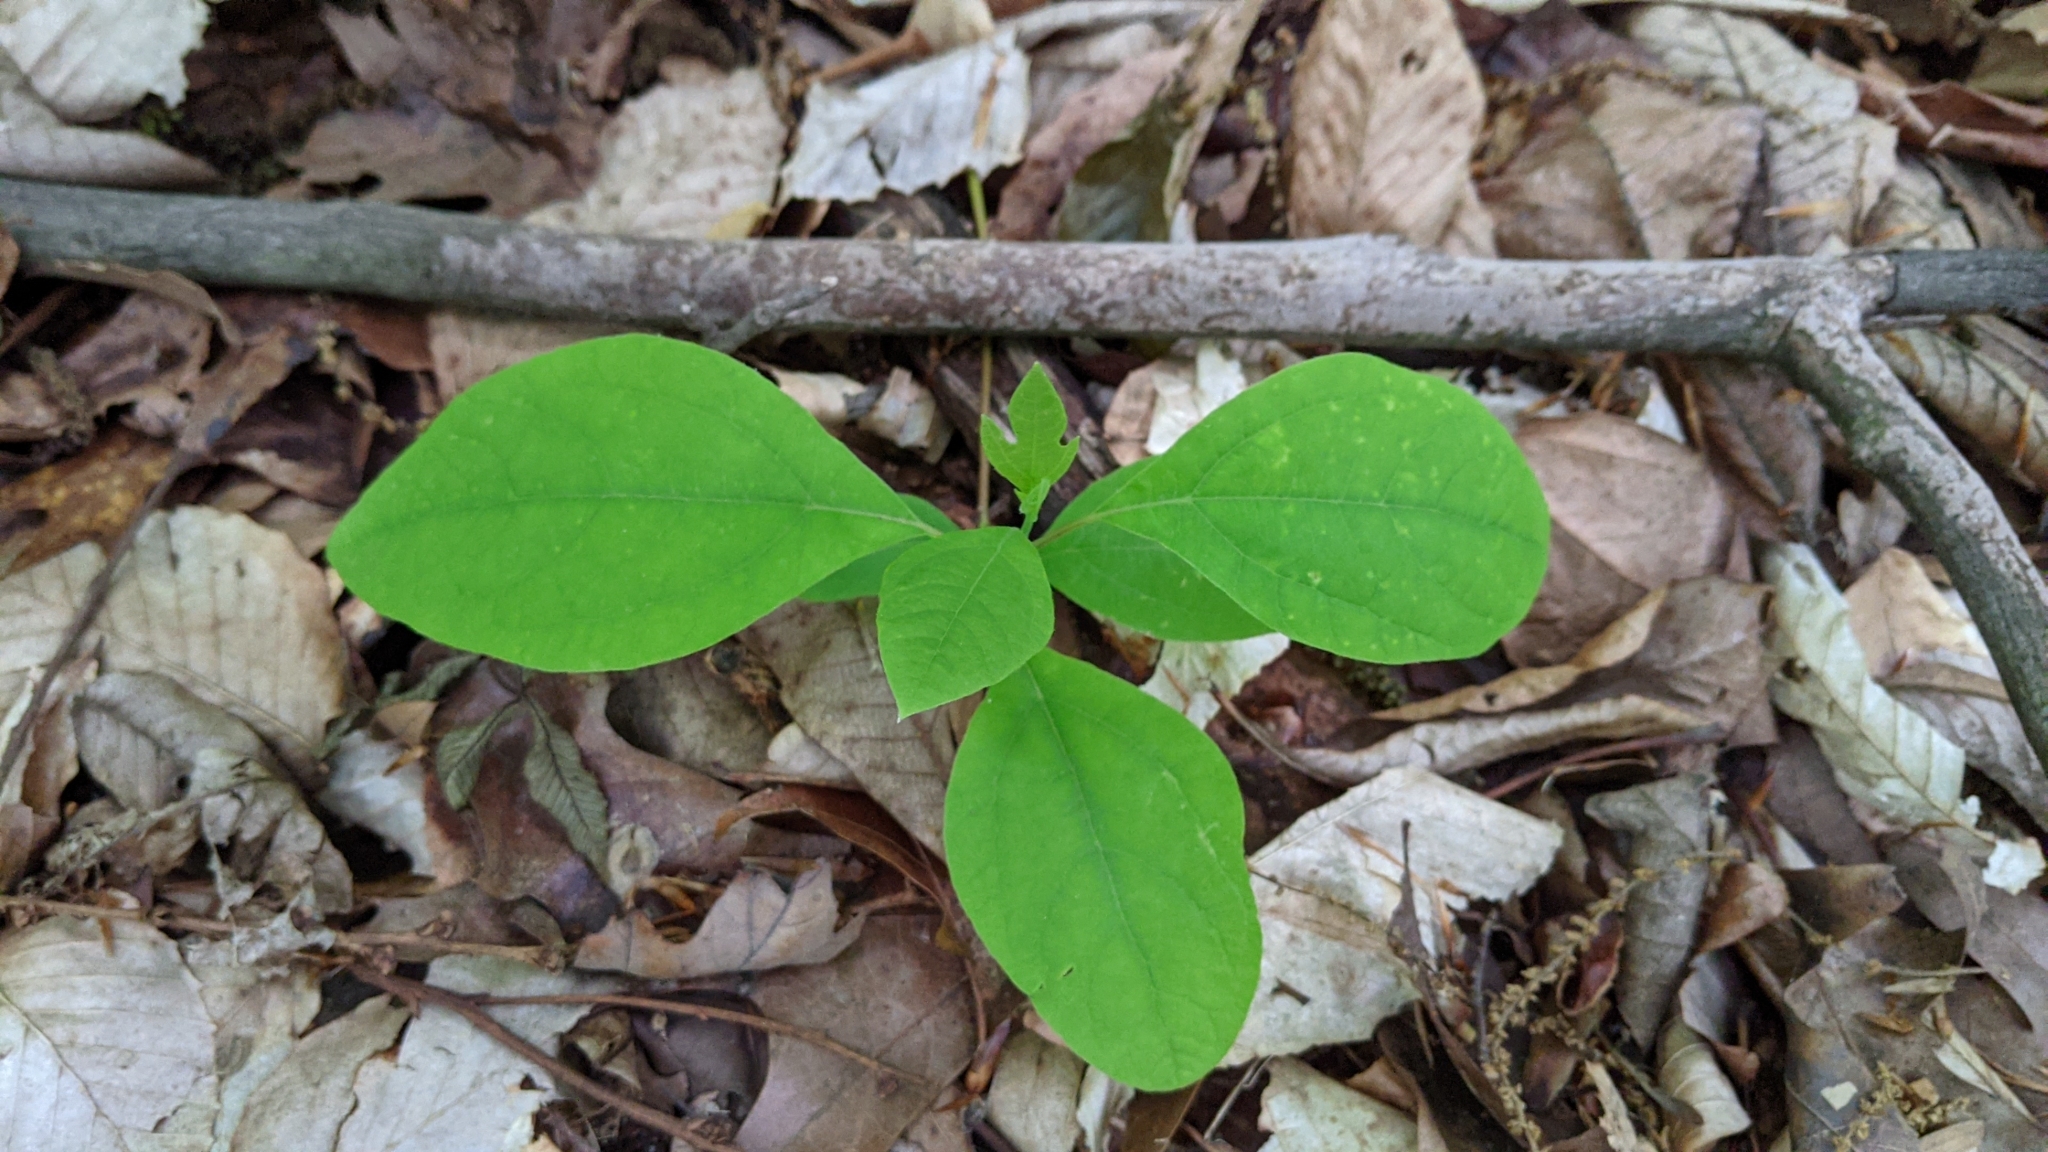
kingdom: Plantae
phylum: Tracheophyta
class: Magnoliopsida
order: Laurales
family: Lauraceae
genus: Sassafras
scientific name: Sassafras albidum
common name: Sassafras
